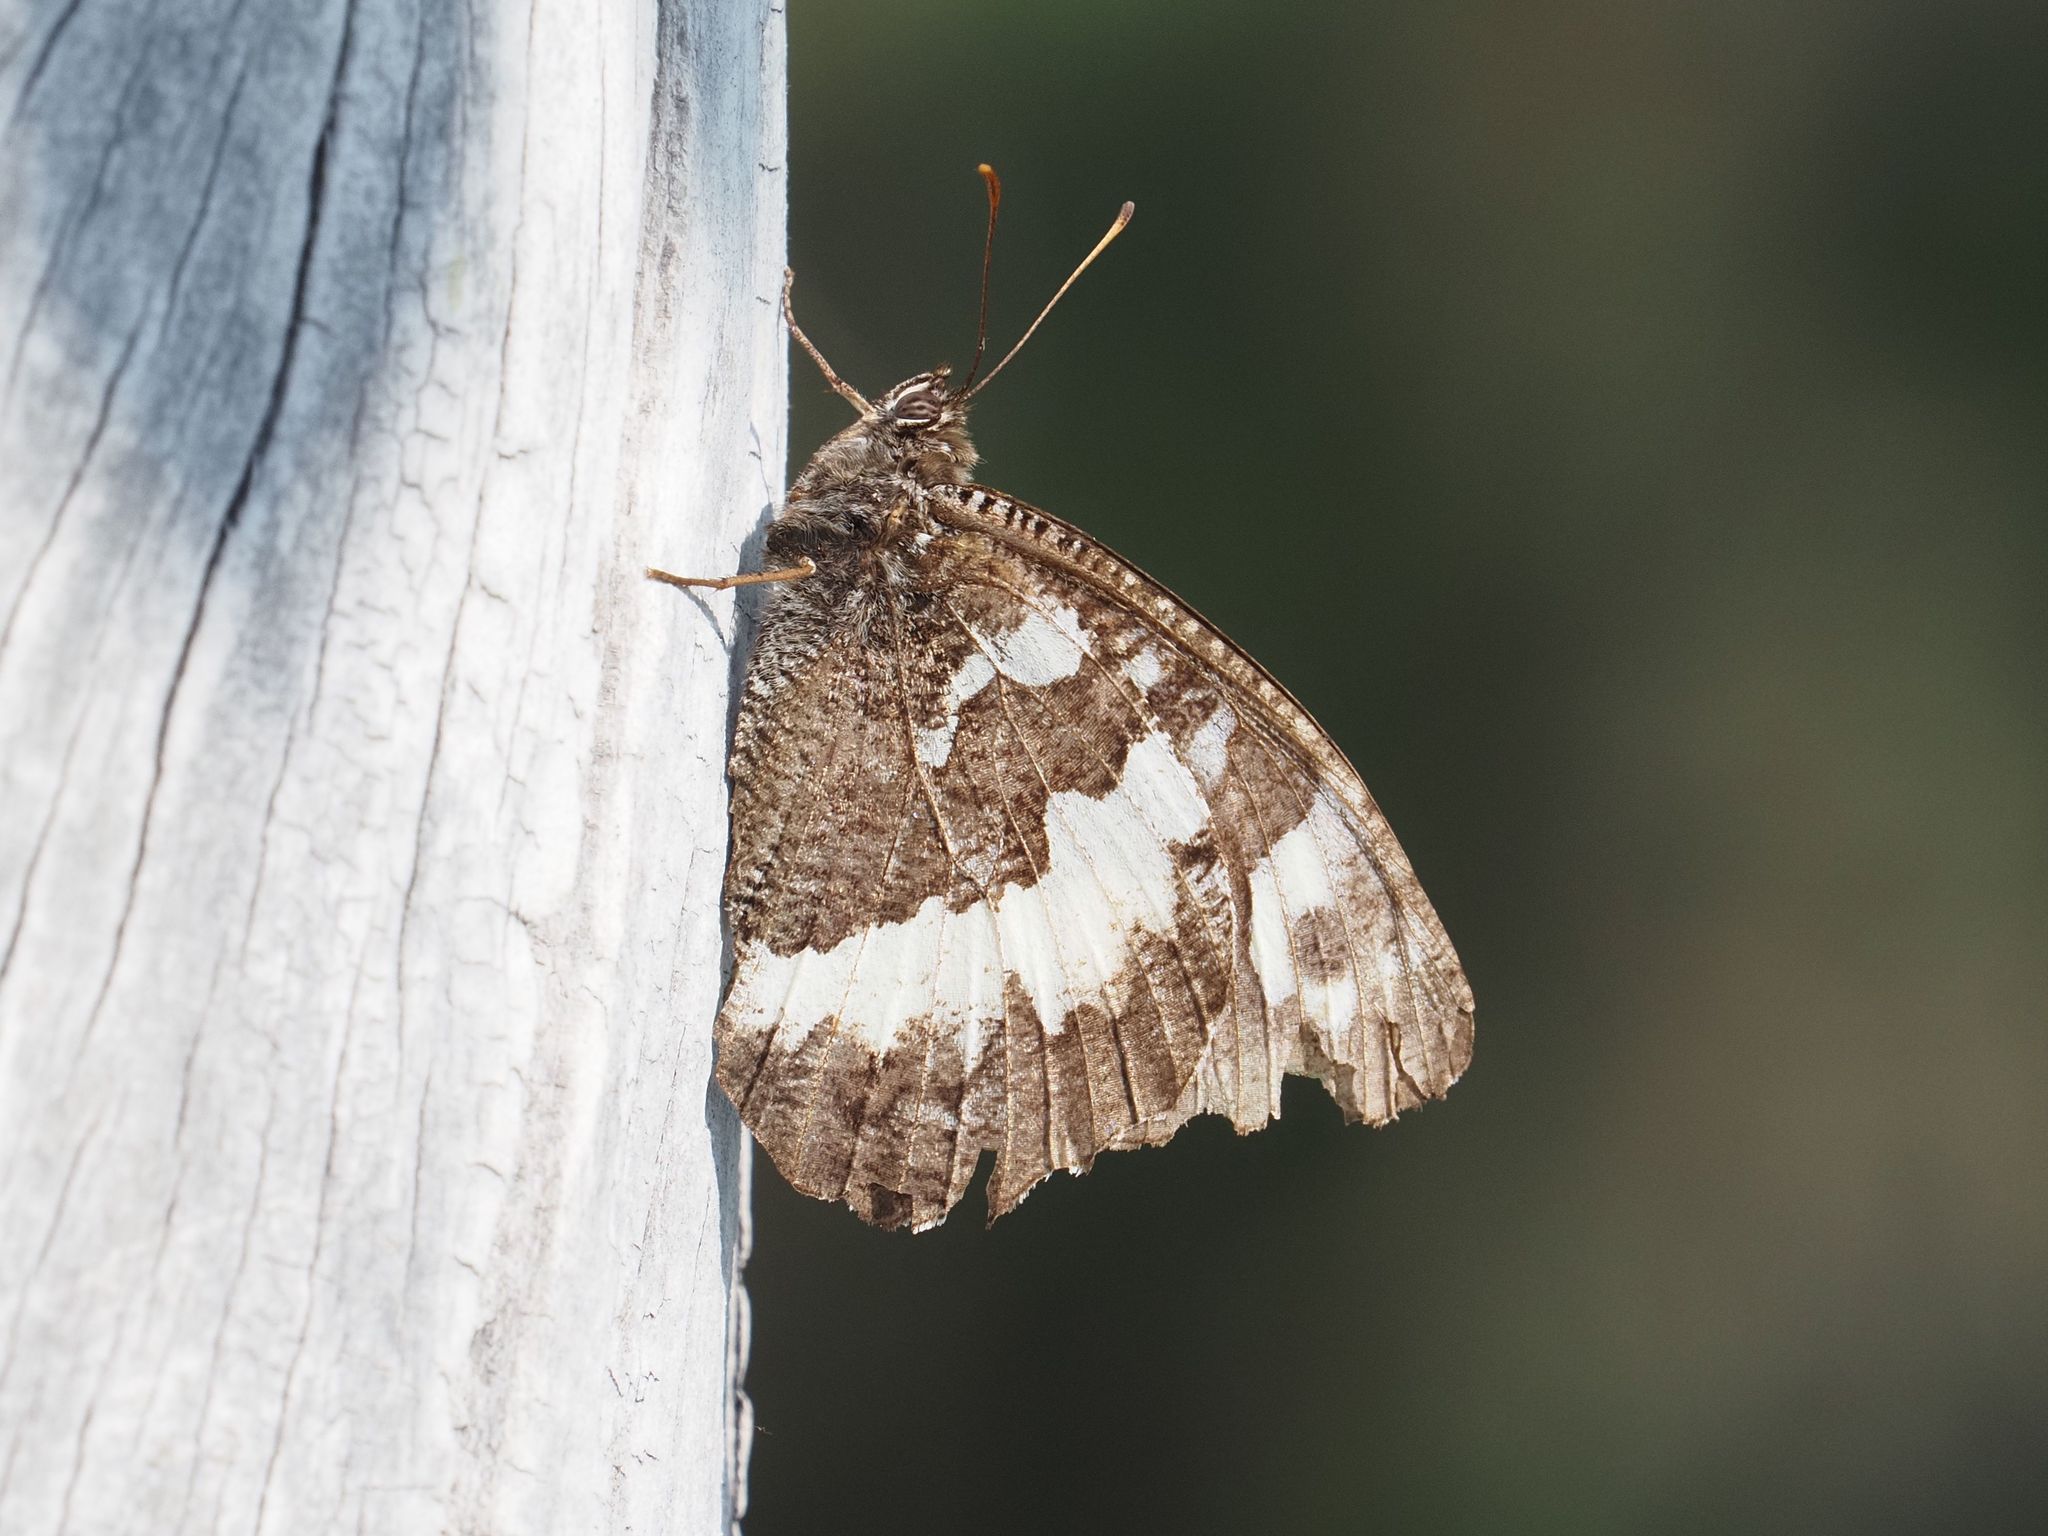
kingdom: Animalia
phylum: Arthropoda
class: Insecta
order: Lepidoptera
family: Lycaenidae
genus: Loweia
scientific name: Loweia tityrus
